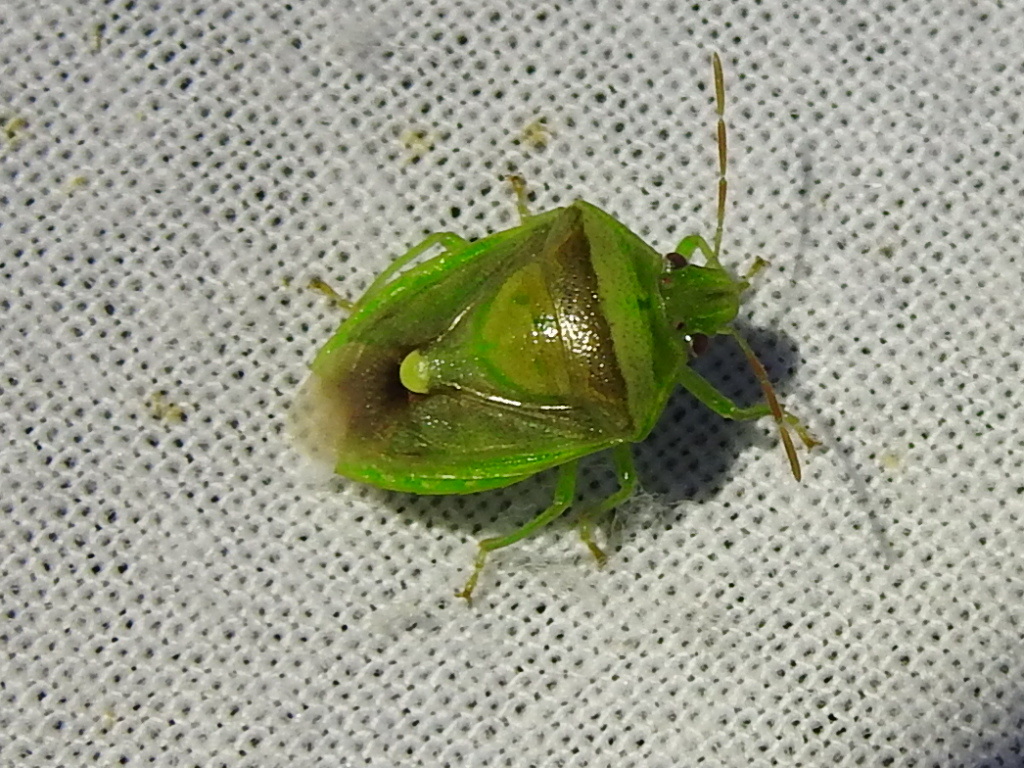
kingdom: Animalia
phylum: Arthropoda
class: Insecta
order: Hemiptera
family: Pentatomidae
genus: Banasa
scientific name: Banasa dimidiata
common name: Green burgundy stink bug
